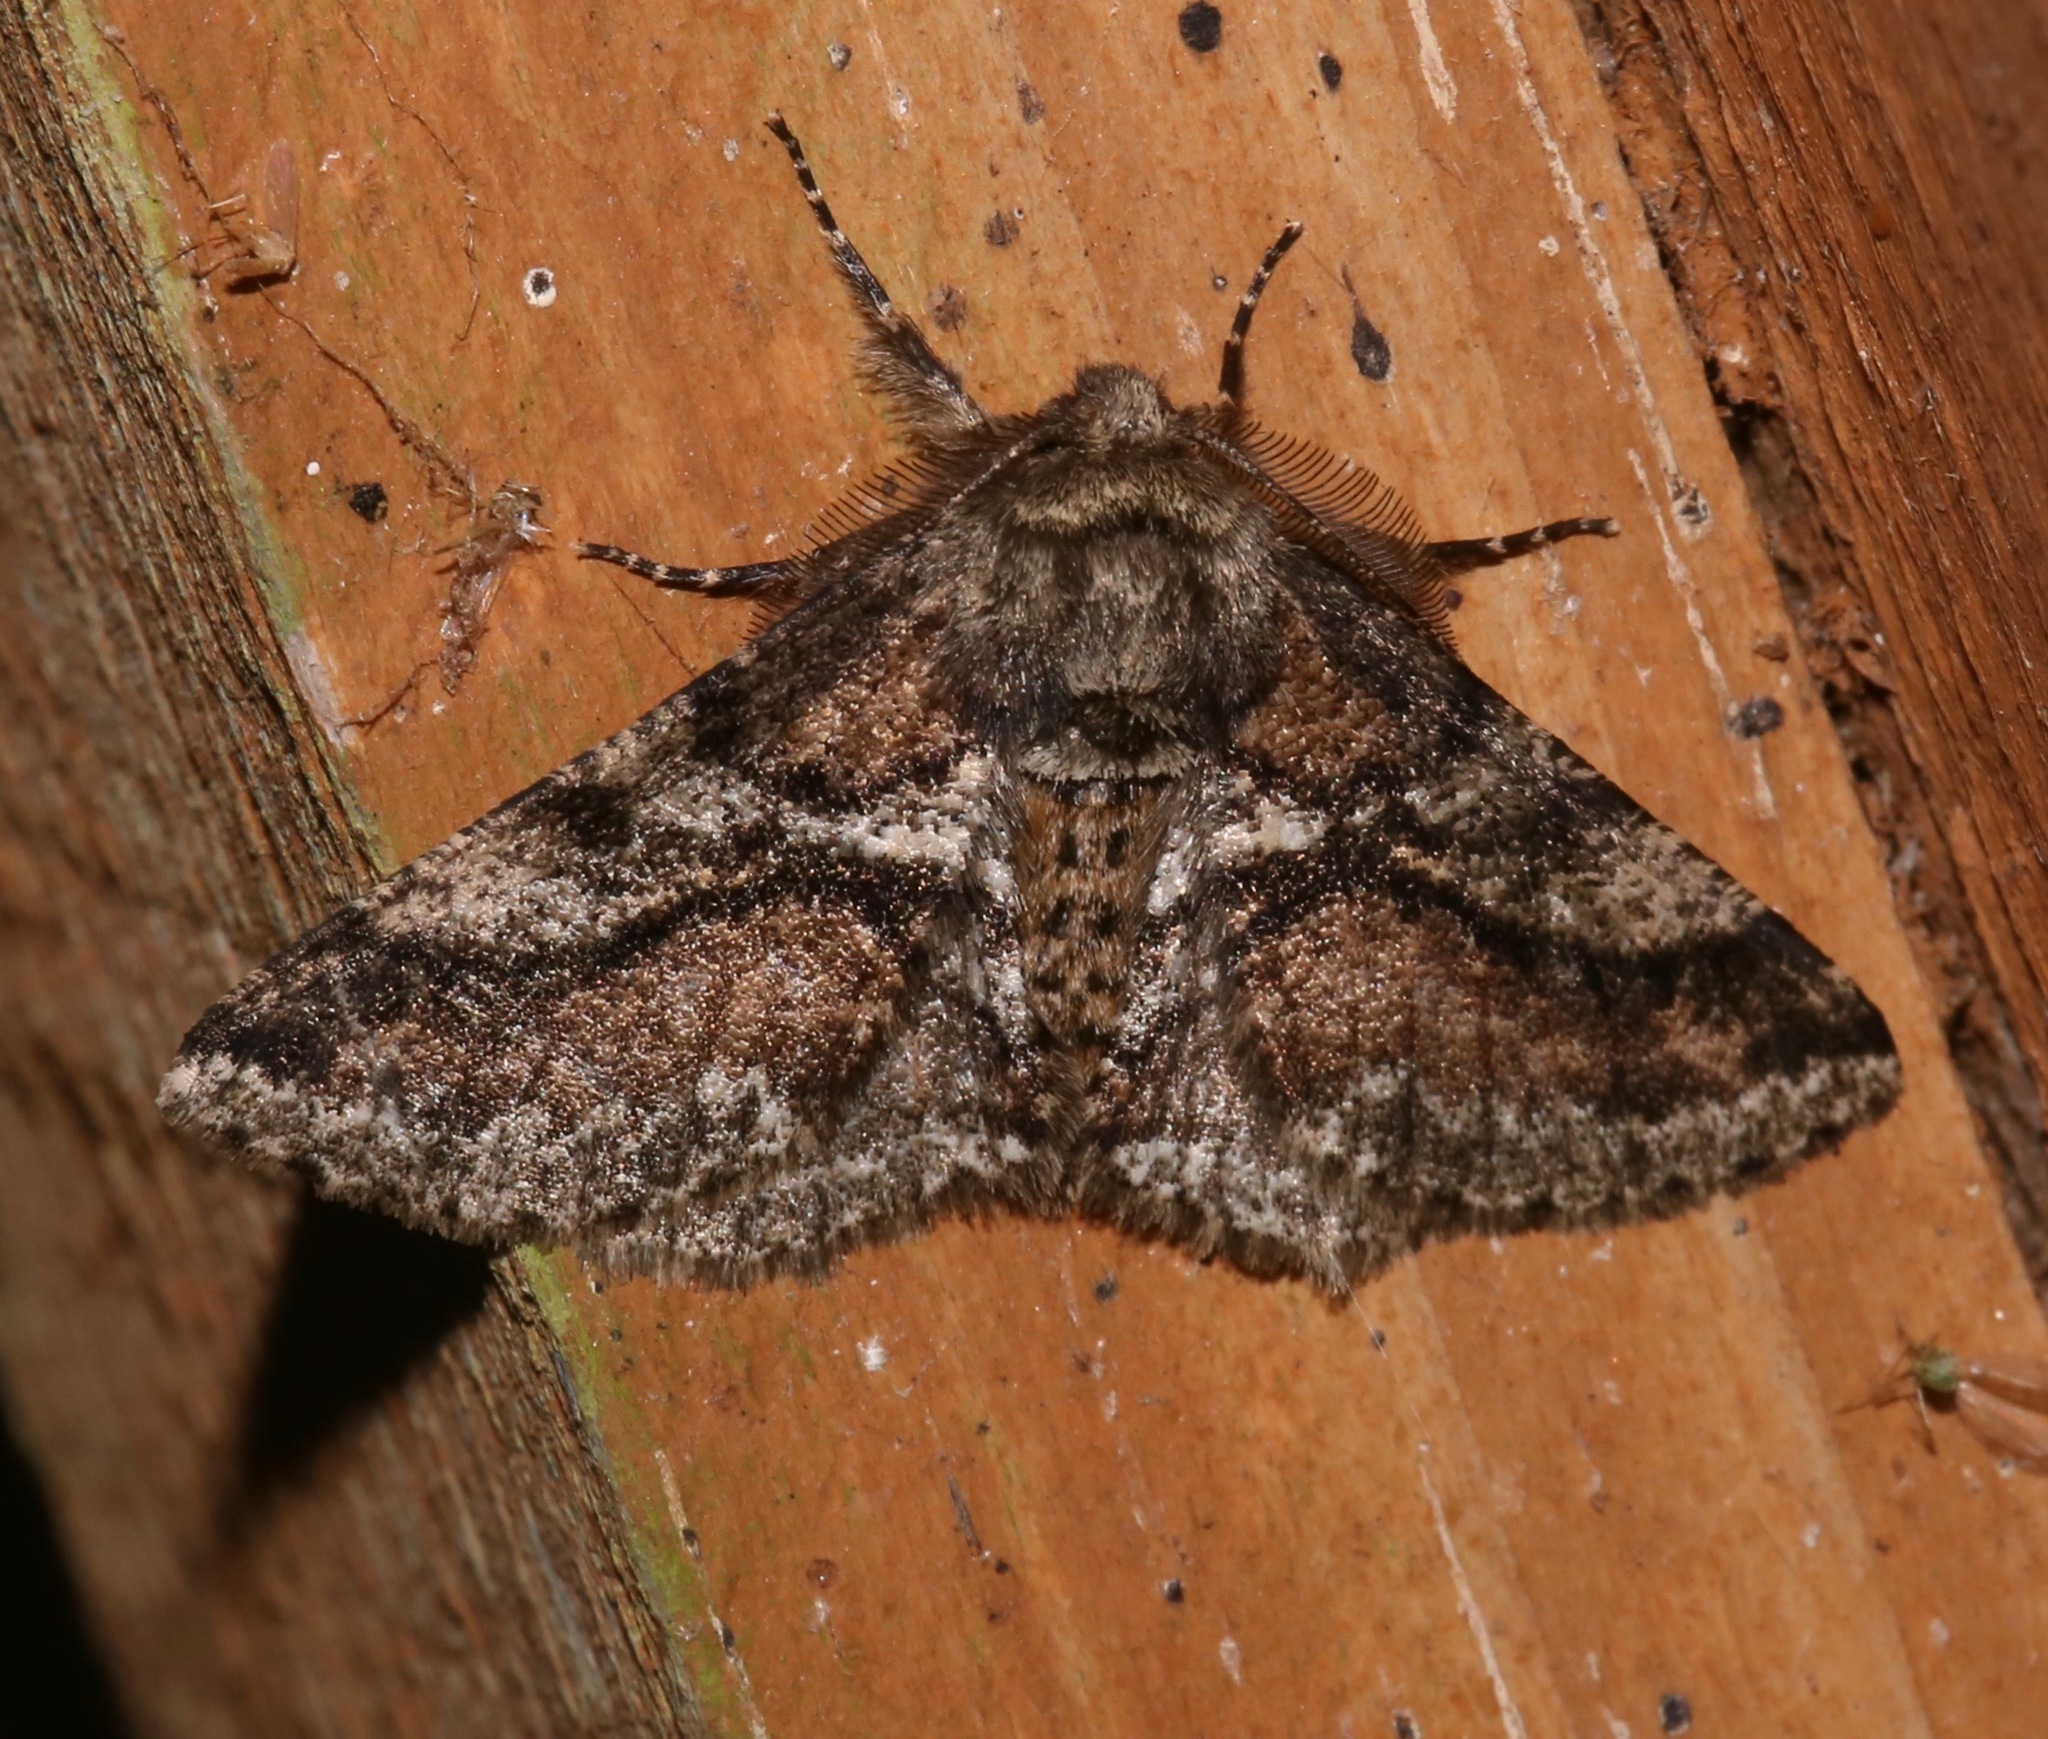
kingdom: Animalia
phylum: Arthropoda
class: Insecta
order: Lepidoptera
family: Geometridae
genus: Lycia
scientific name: Lycia ypsilon
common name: Wooly gray
